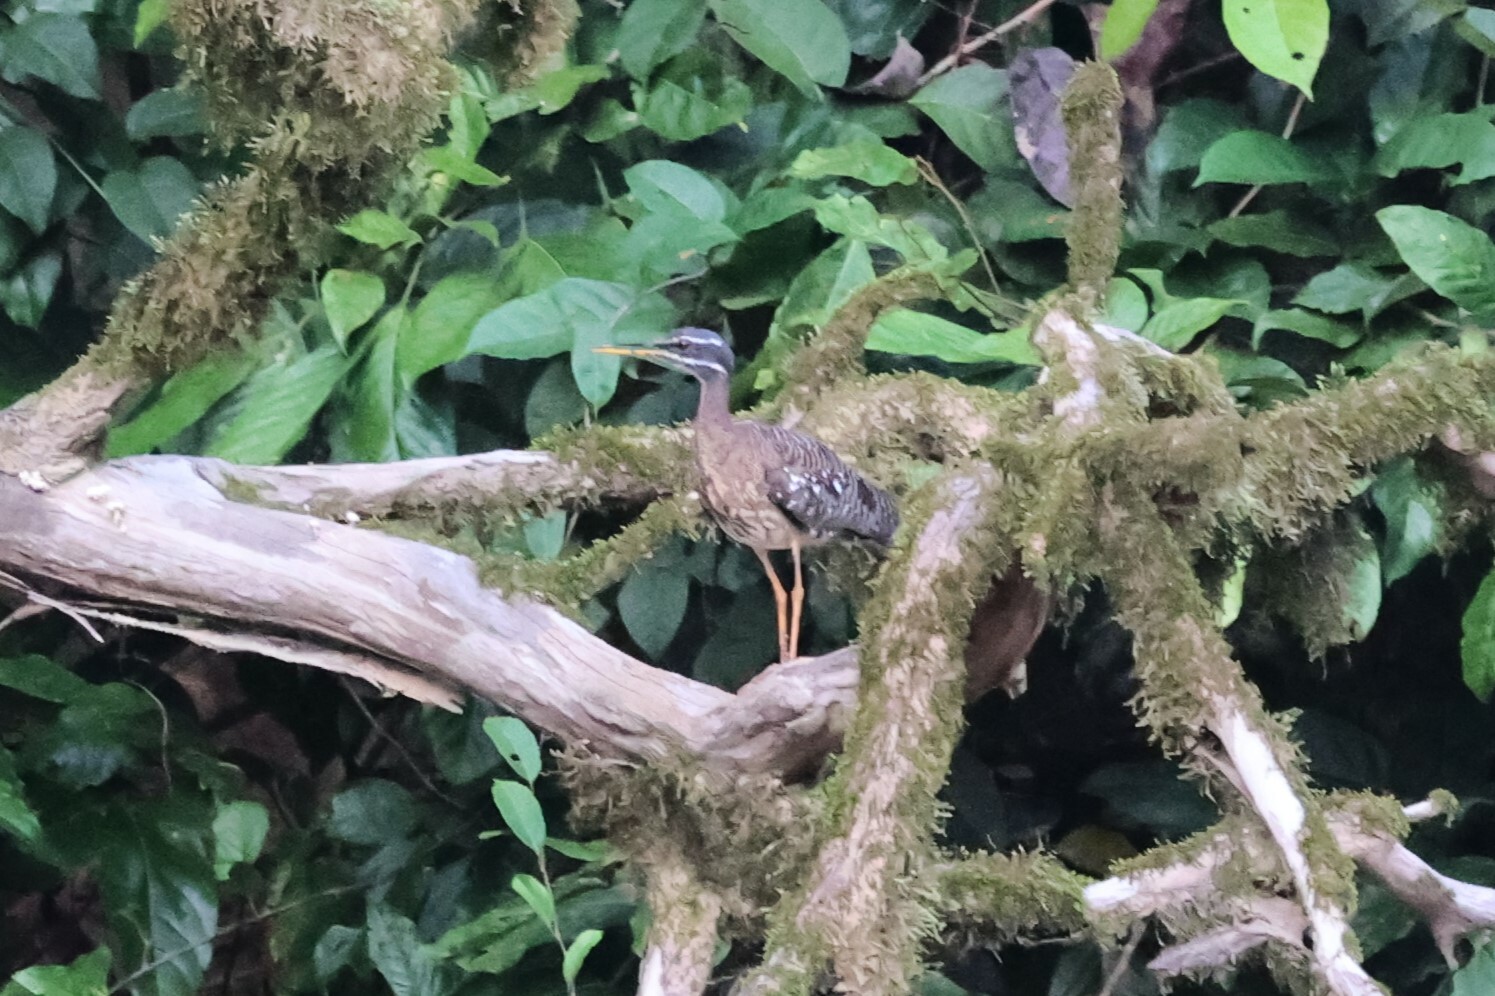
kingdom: Animalia
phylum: Chordata
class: Aves
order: Eurypygiformes
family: Eurypygidae
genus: Eurypyga
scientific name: Eurypyga helias
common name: Sunbittern
